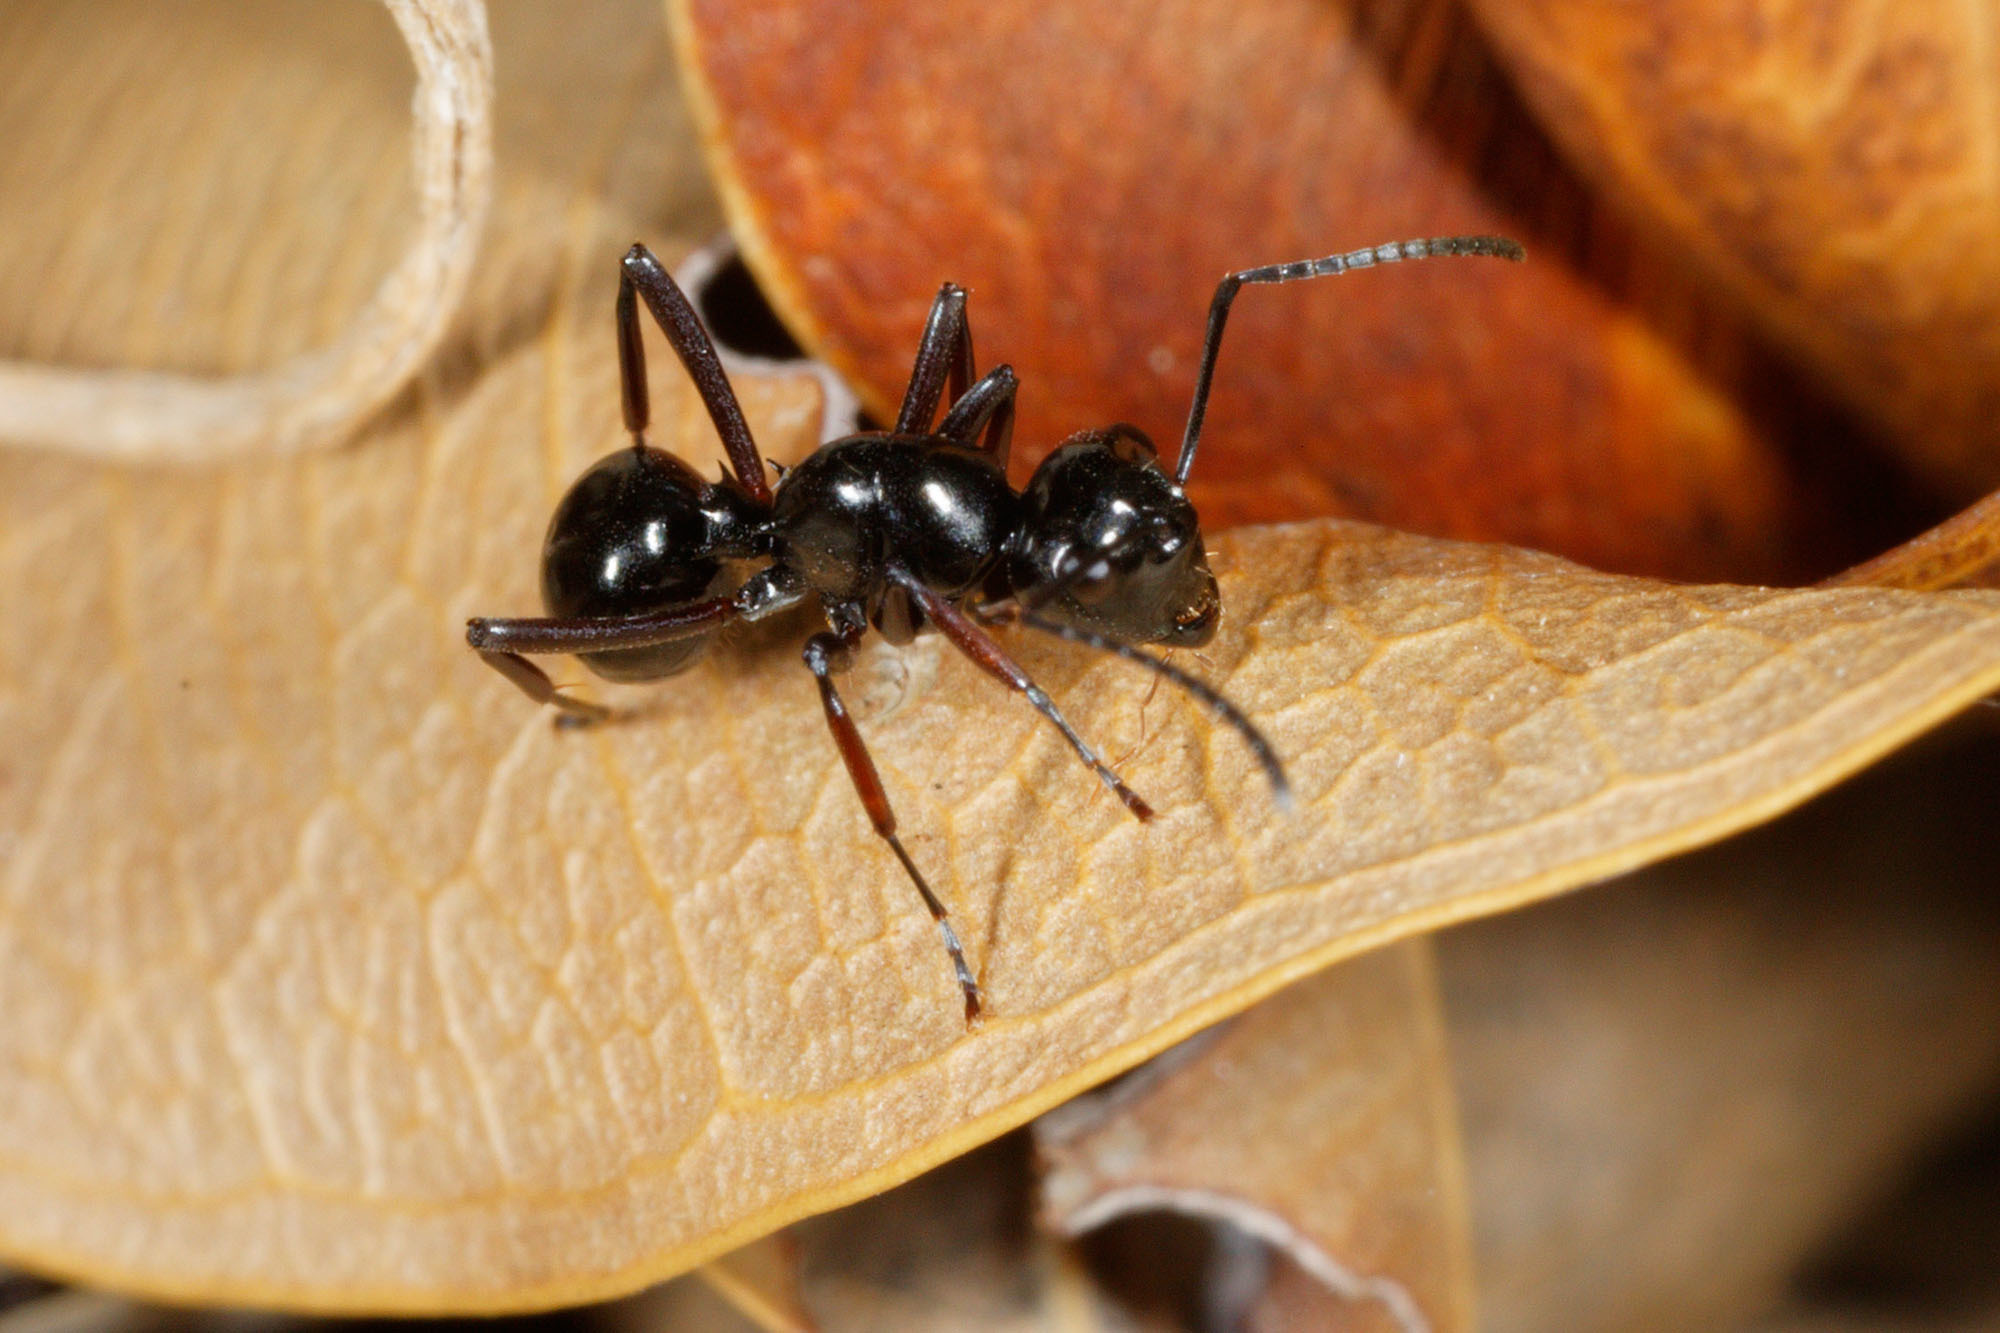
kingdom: Animalia
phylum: Arthropoda
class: Insecta
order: Hymenoptera
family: Formicidae
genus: Polyrhachis
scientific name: Polyrhachis australis
